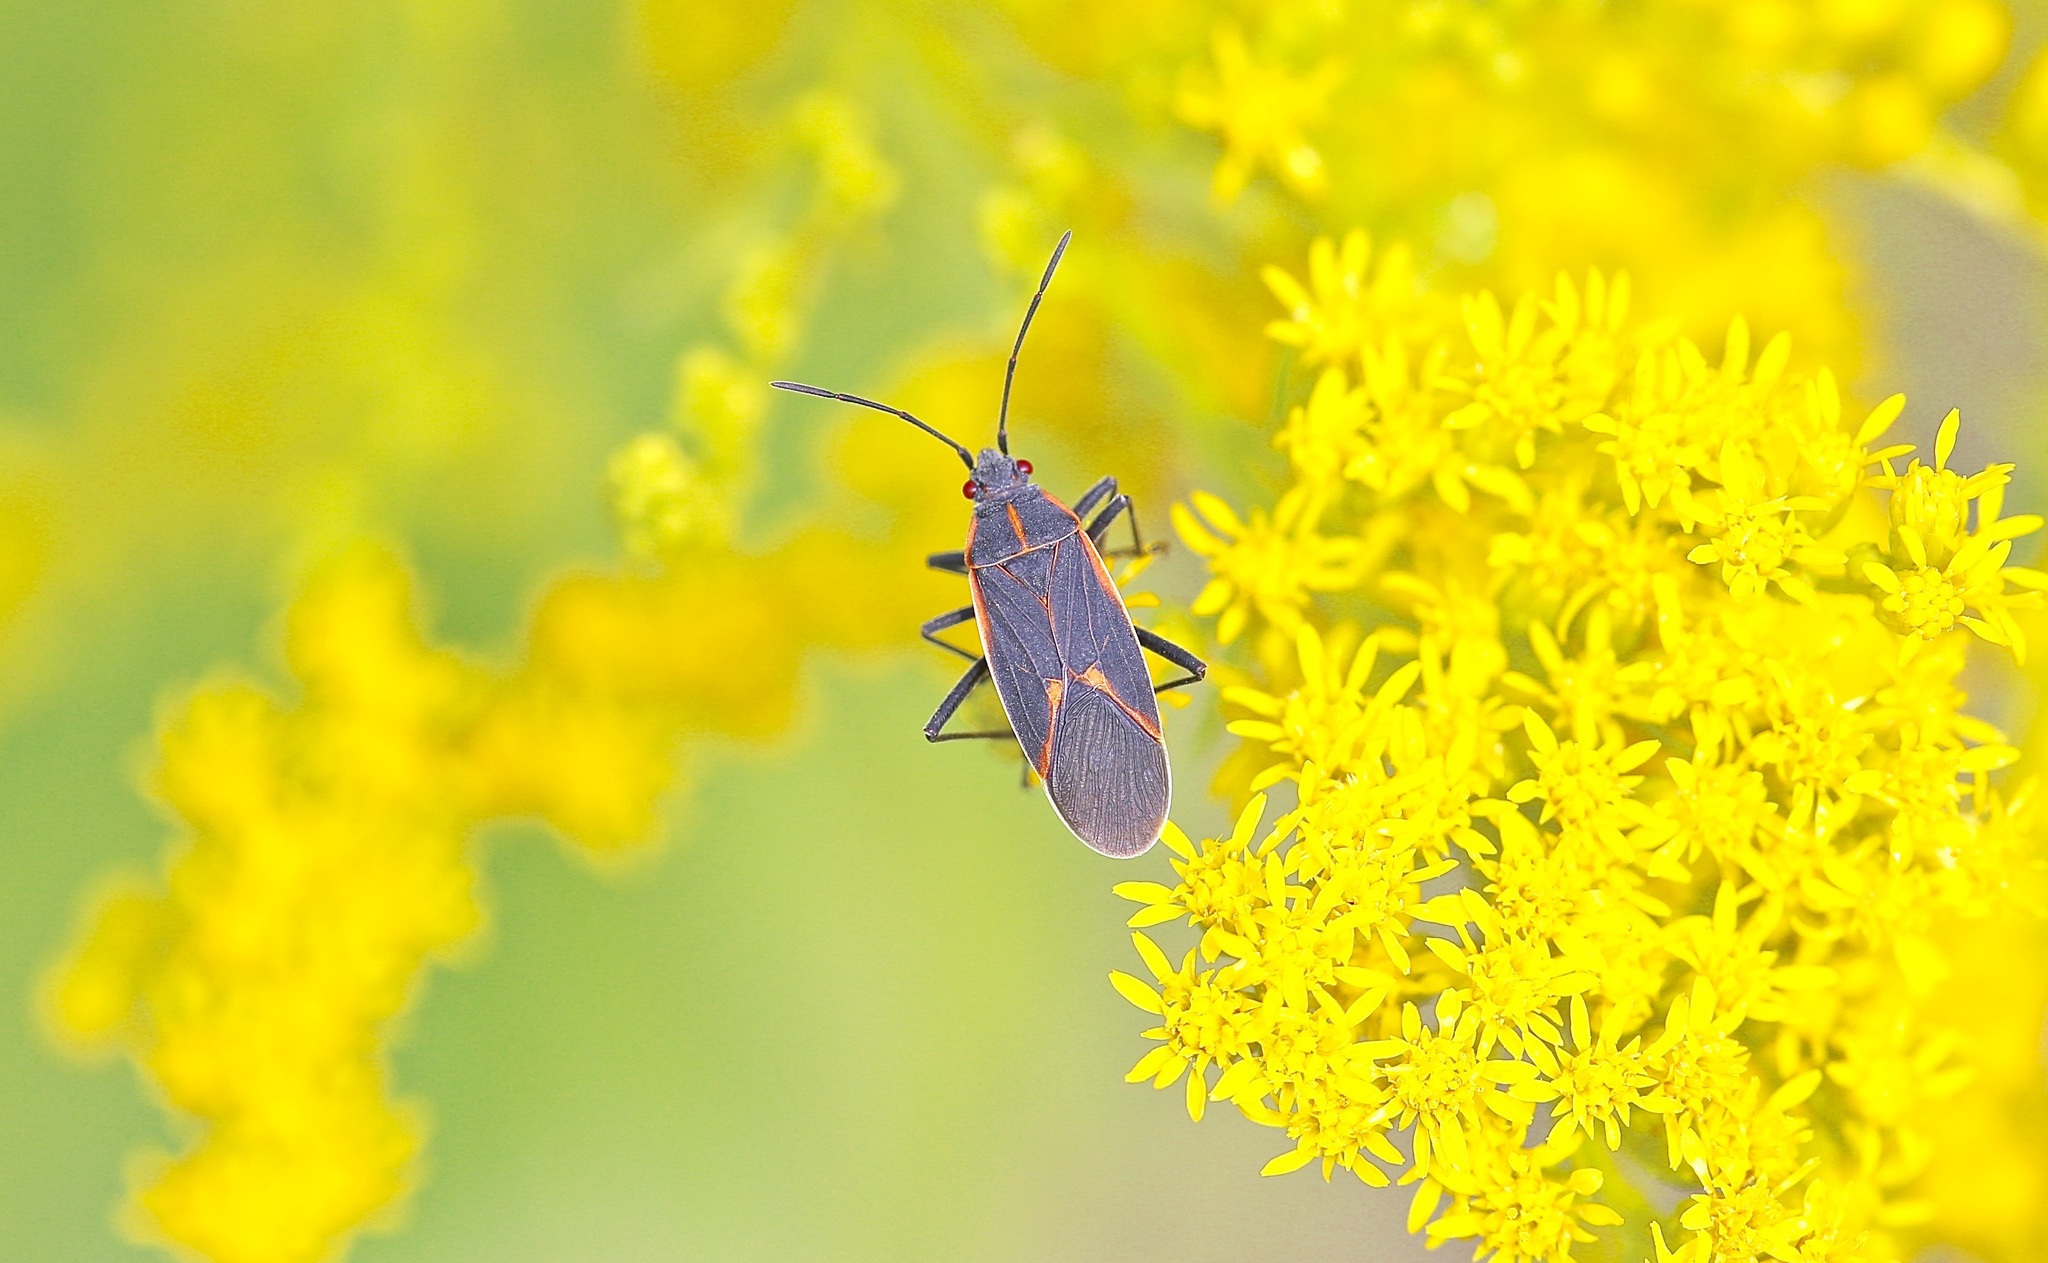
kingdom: Animalia
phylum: Arthropoda
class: Insecta
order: Hemiptera
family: Rhopalidae
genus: Boisea
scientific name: Boisea trivittata
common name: Boxelder bug
